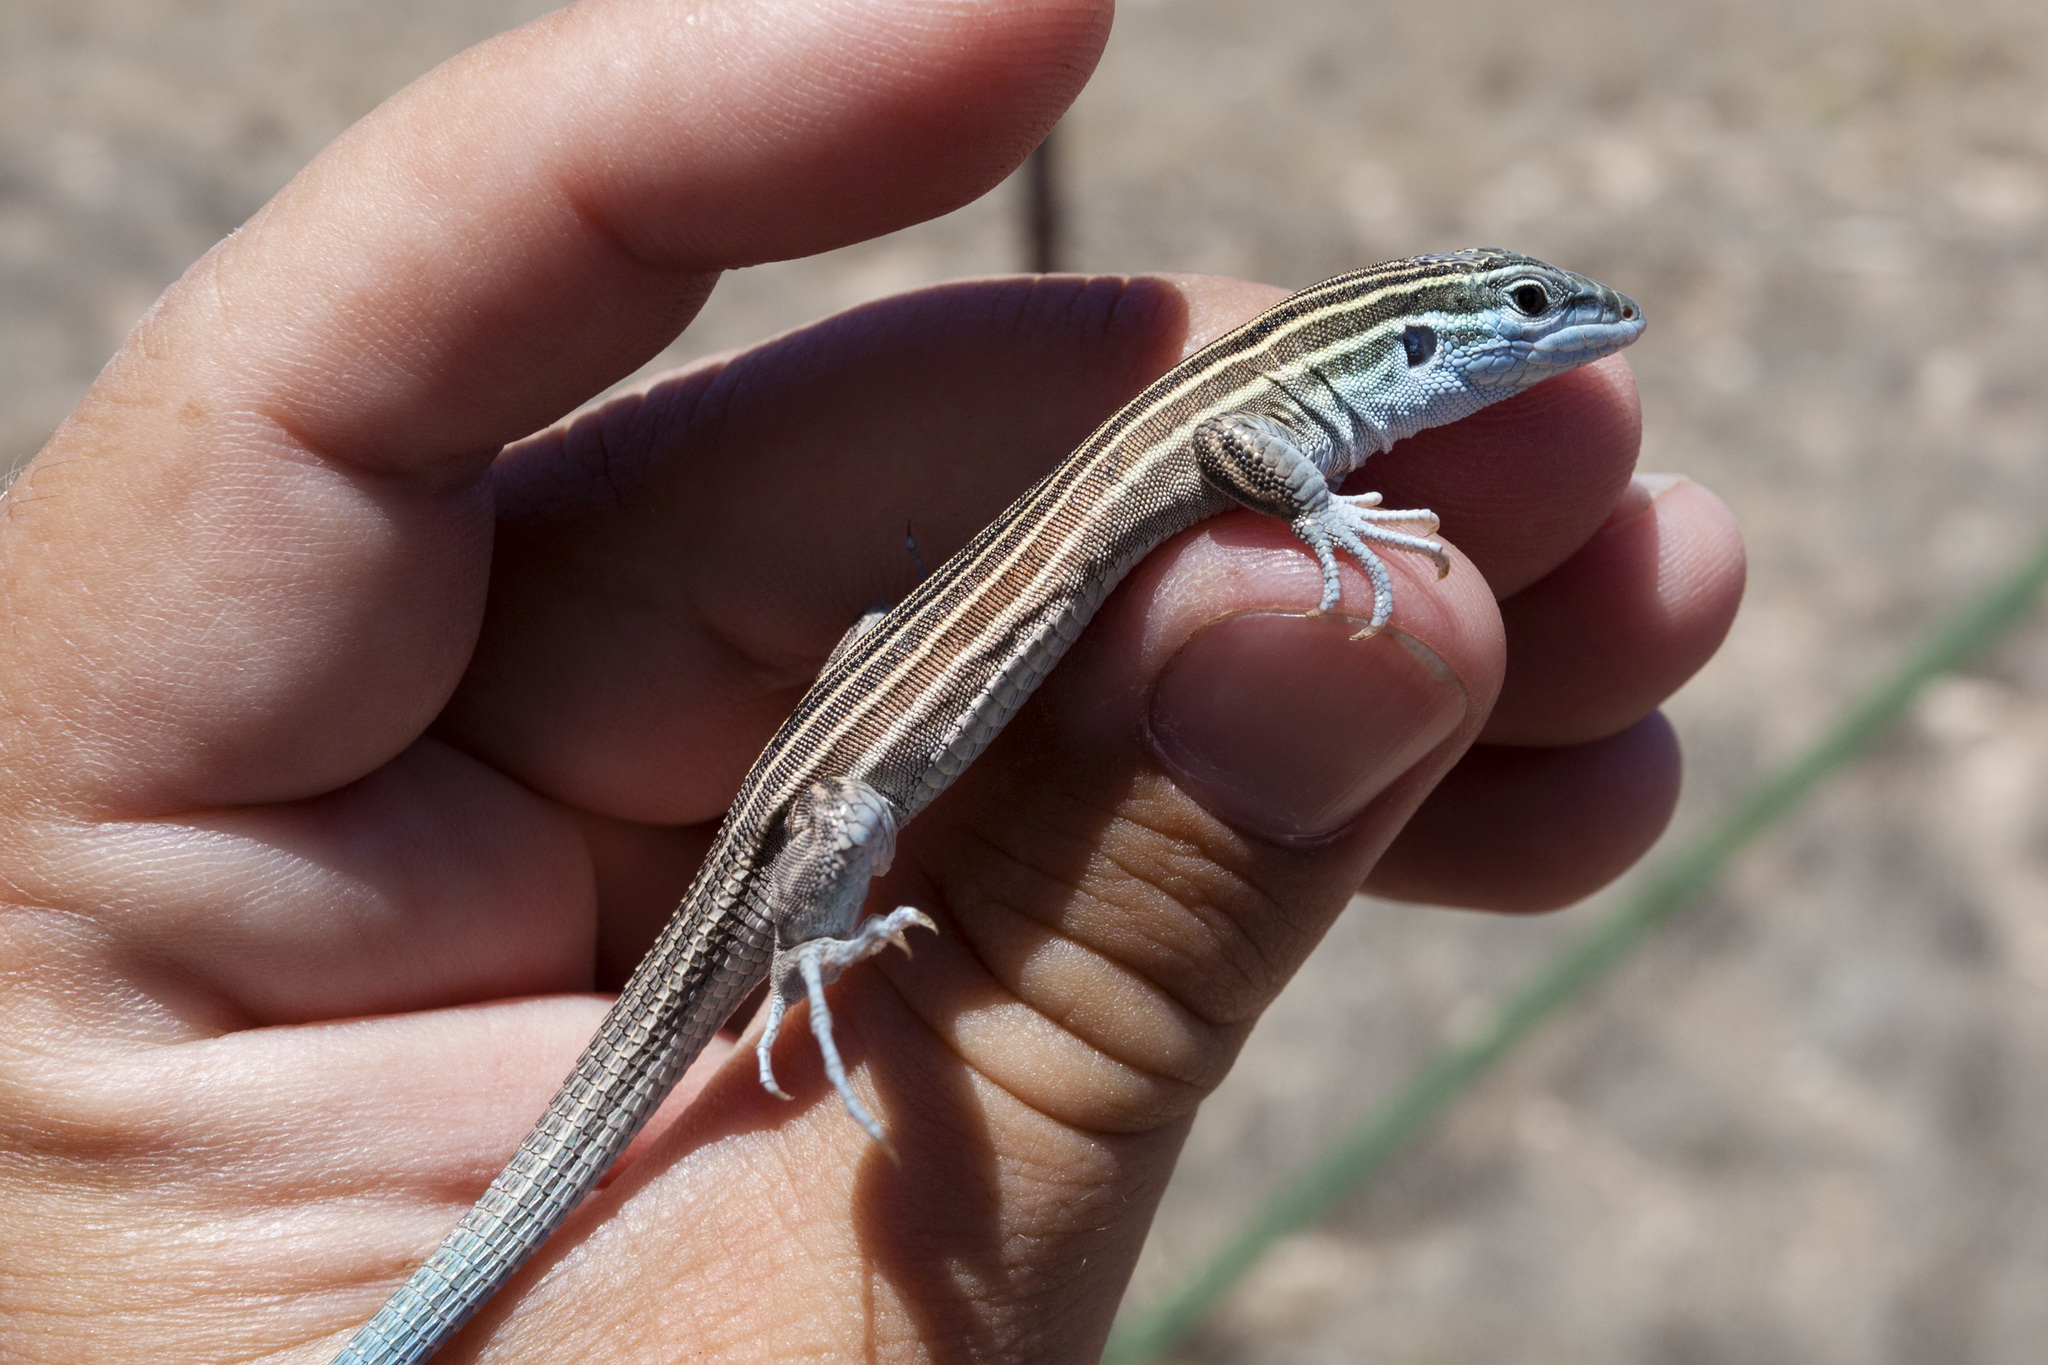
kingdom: Animalia
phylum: Chordata
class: Squamata
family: Teiidae
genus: Aspidoscelis
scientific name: Aspidoscelis inornatus
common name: Little striped whiptail
